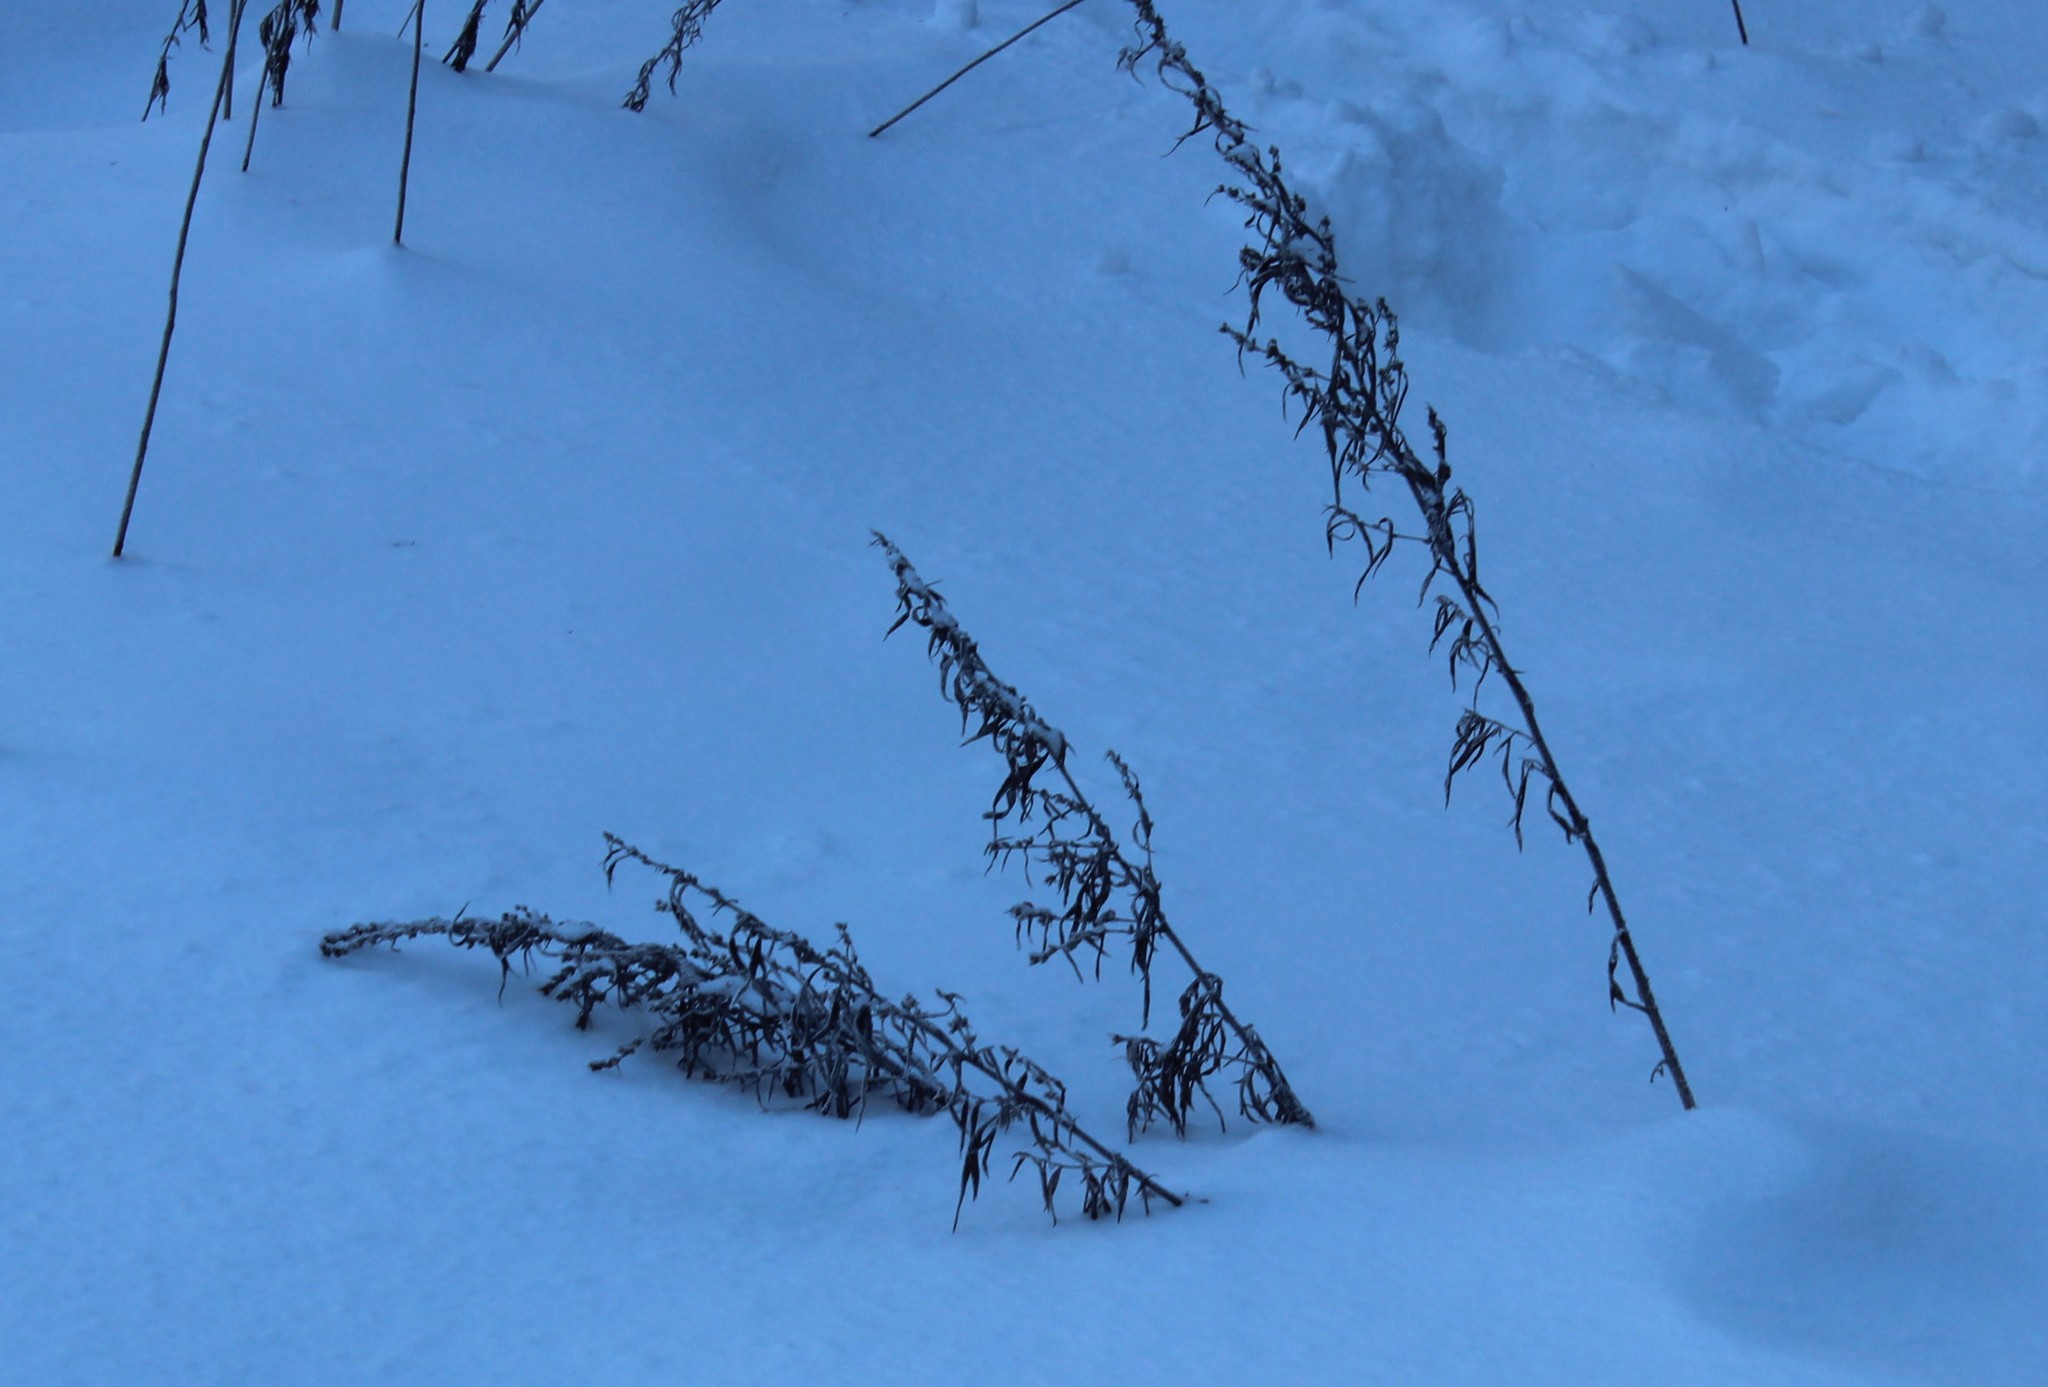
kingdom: Plantae
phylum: Tracheophyta
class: Magnoliopsida
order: Asterales
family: Asteraceae
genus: Artemisia
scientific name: Artemisia vulgaris
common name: Mugwort
